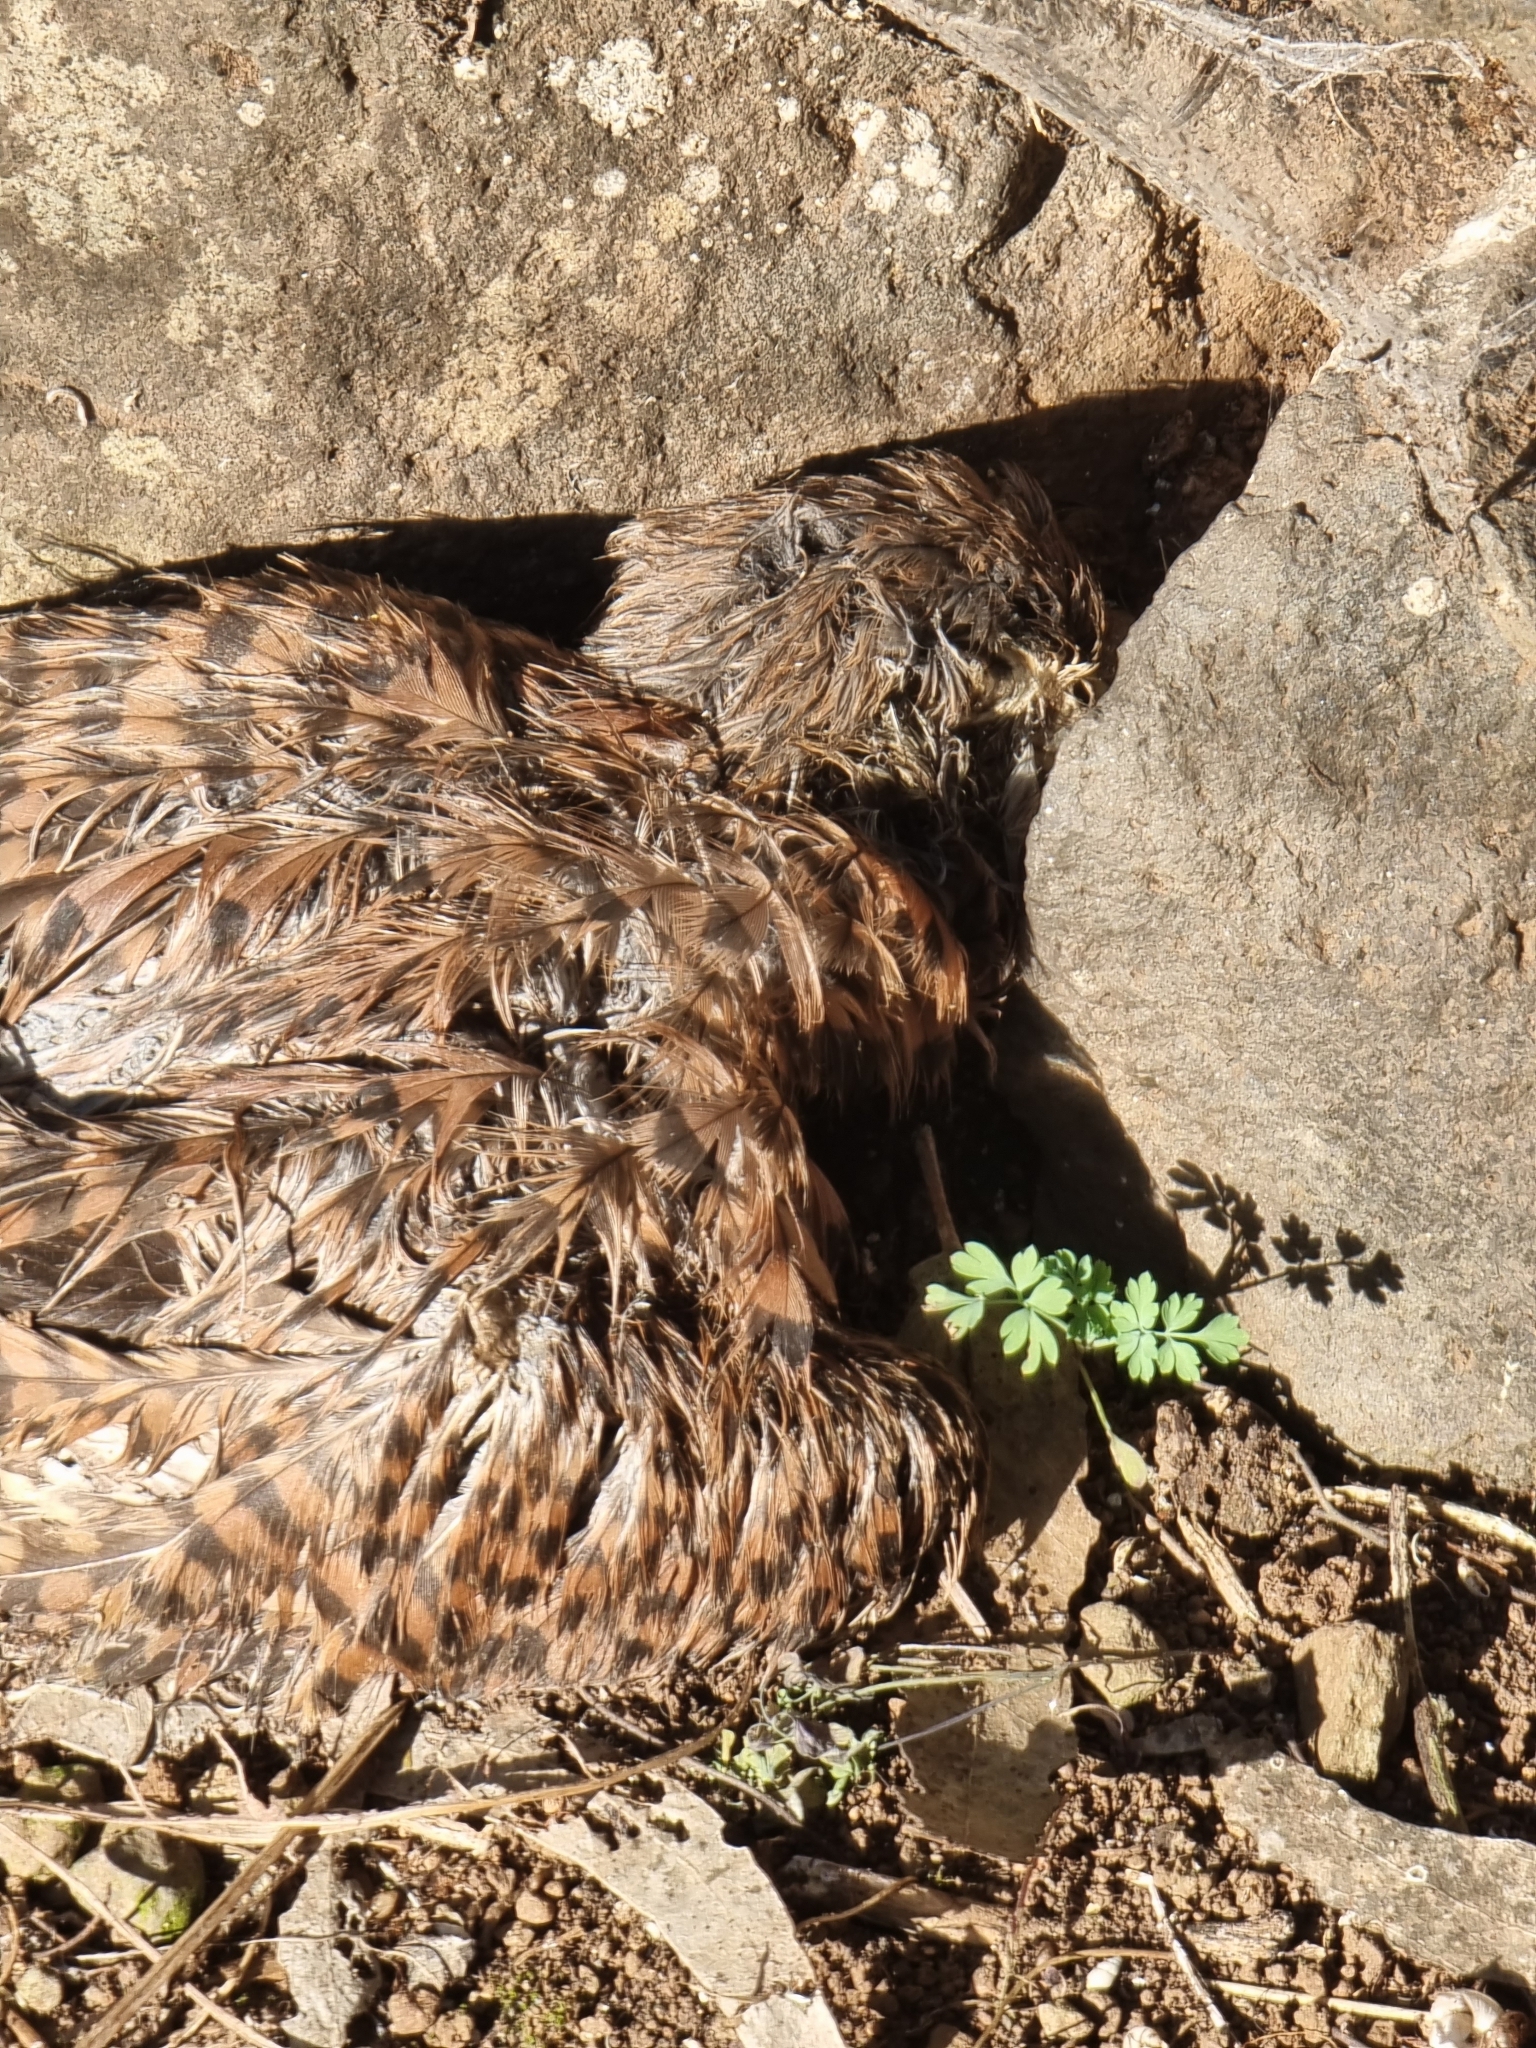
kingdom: Animalia
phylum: Chordata
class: Aves
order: Falconiformes
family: Falconidae
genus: Falco
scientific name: Falco tinnunculus
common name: Common kestrel
